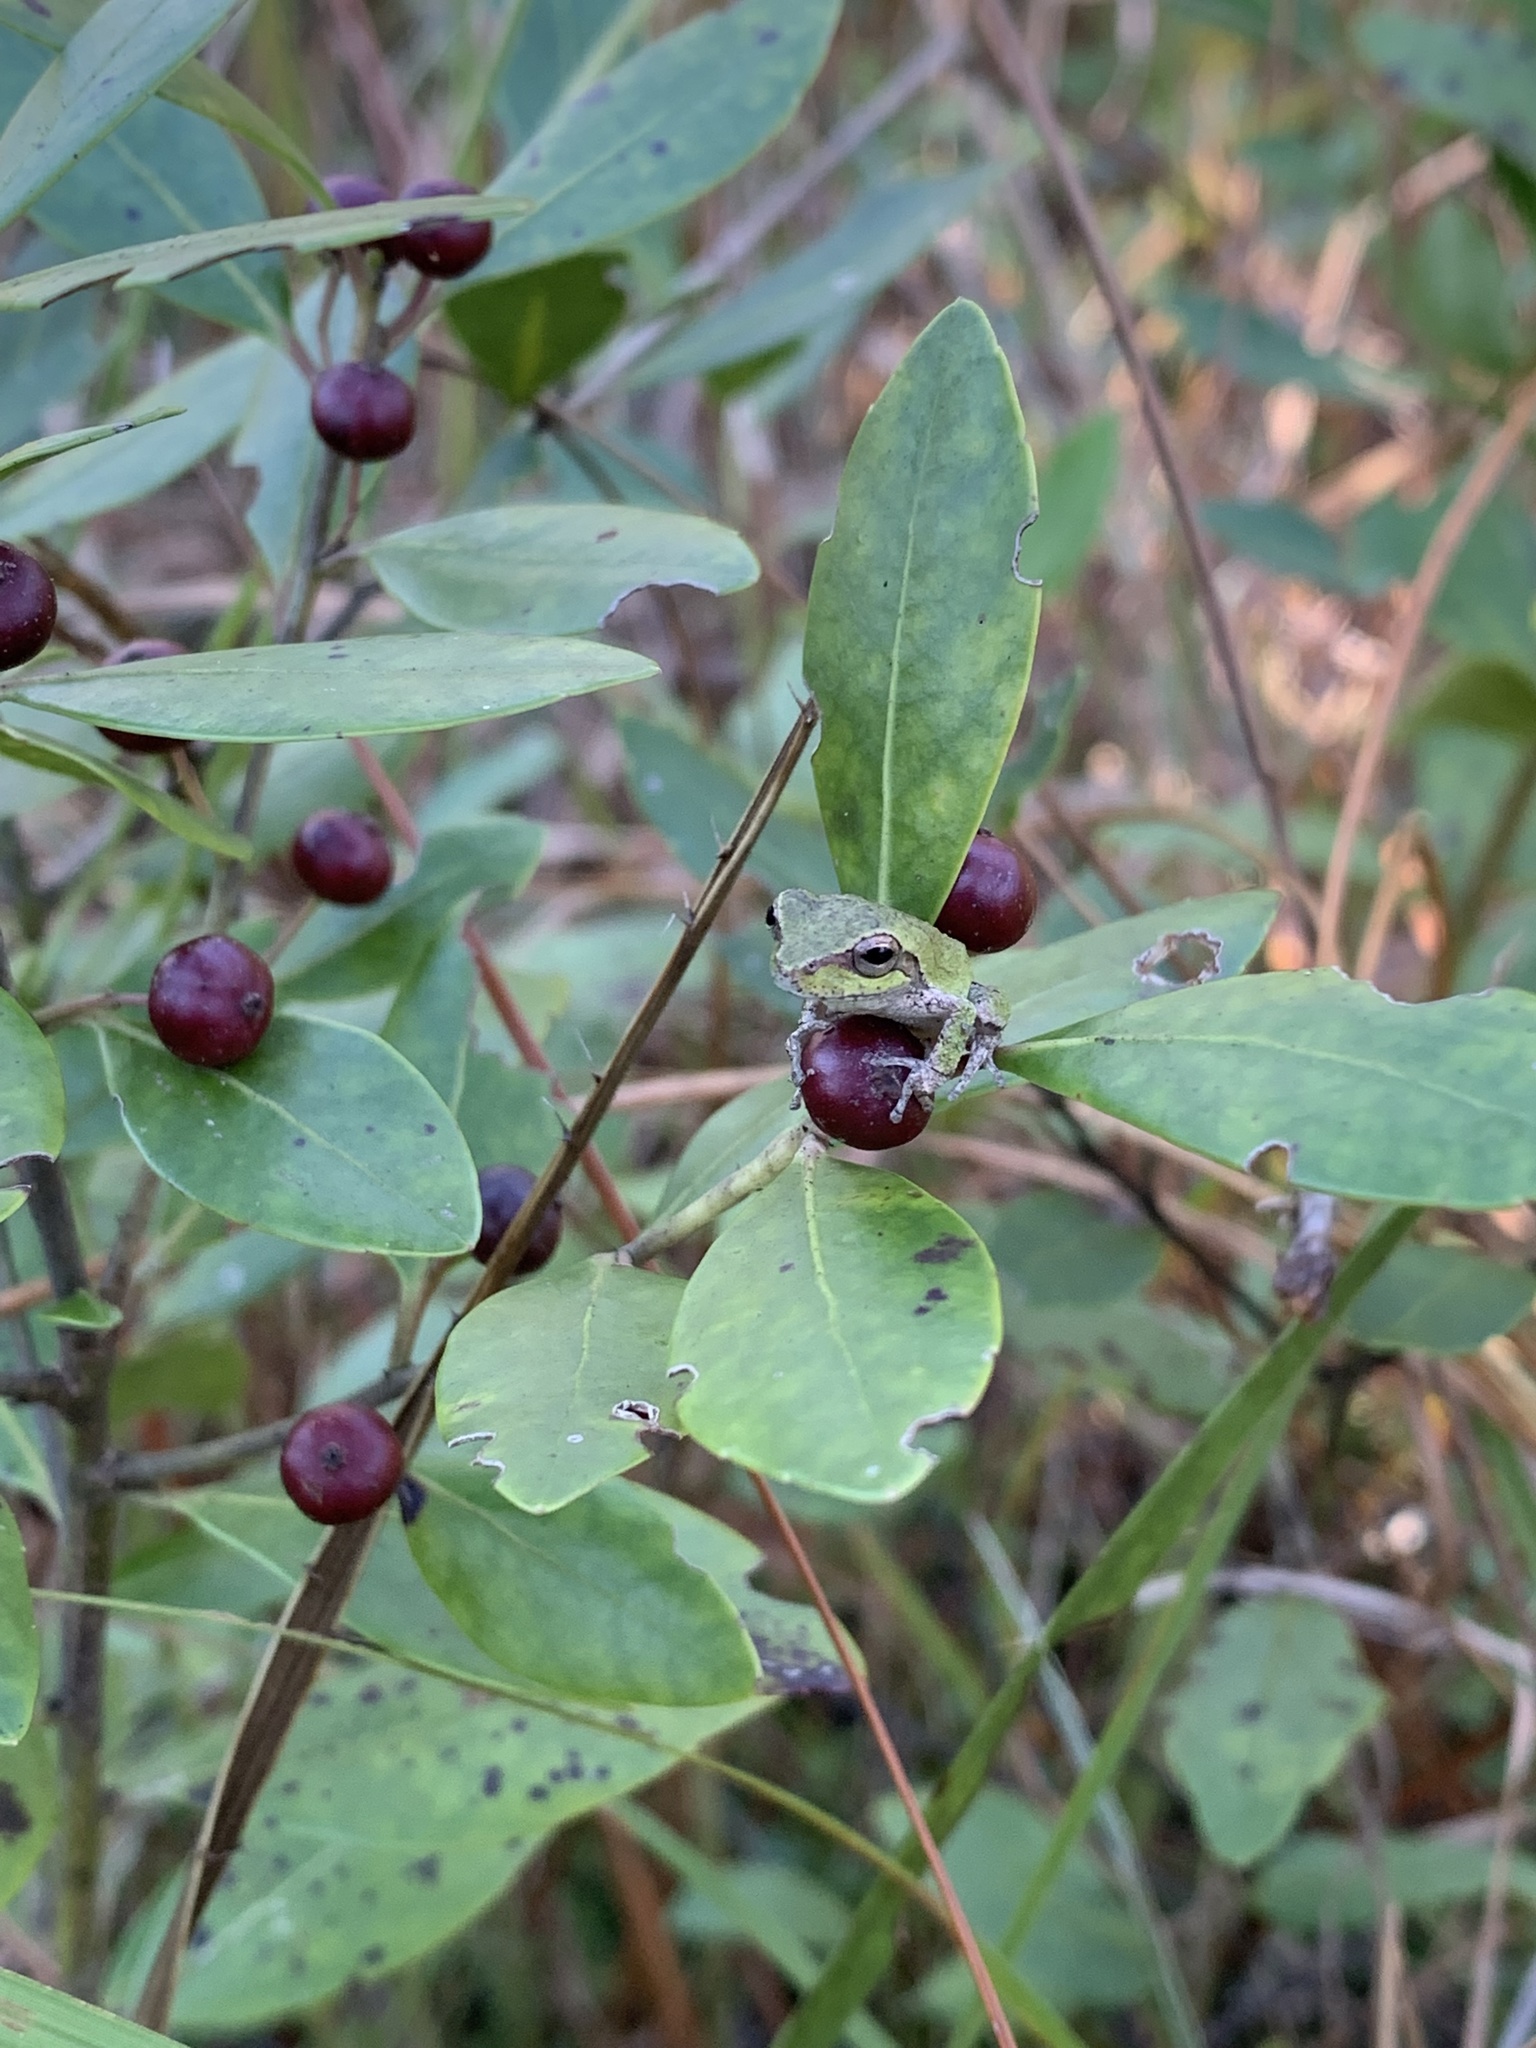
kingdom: Animalia
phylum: Chordata
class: Amphibia
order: Anura
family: Hylidae
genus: Hyla
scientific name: Hyla femoralis
